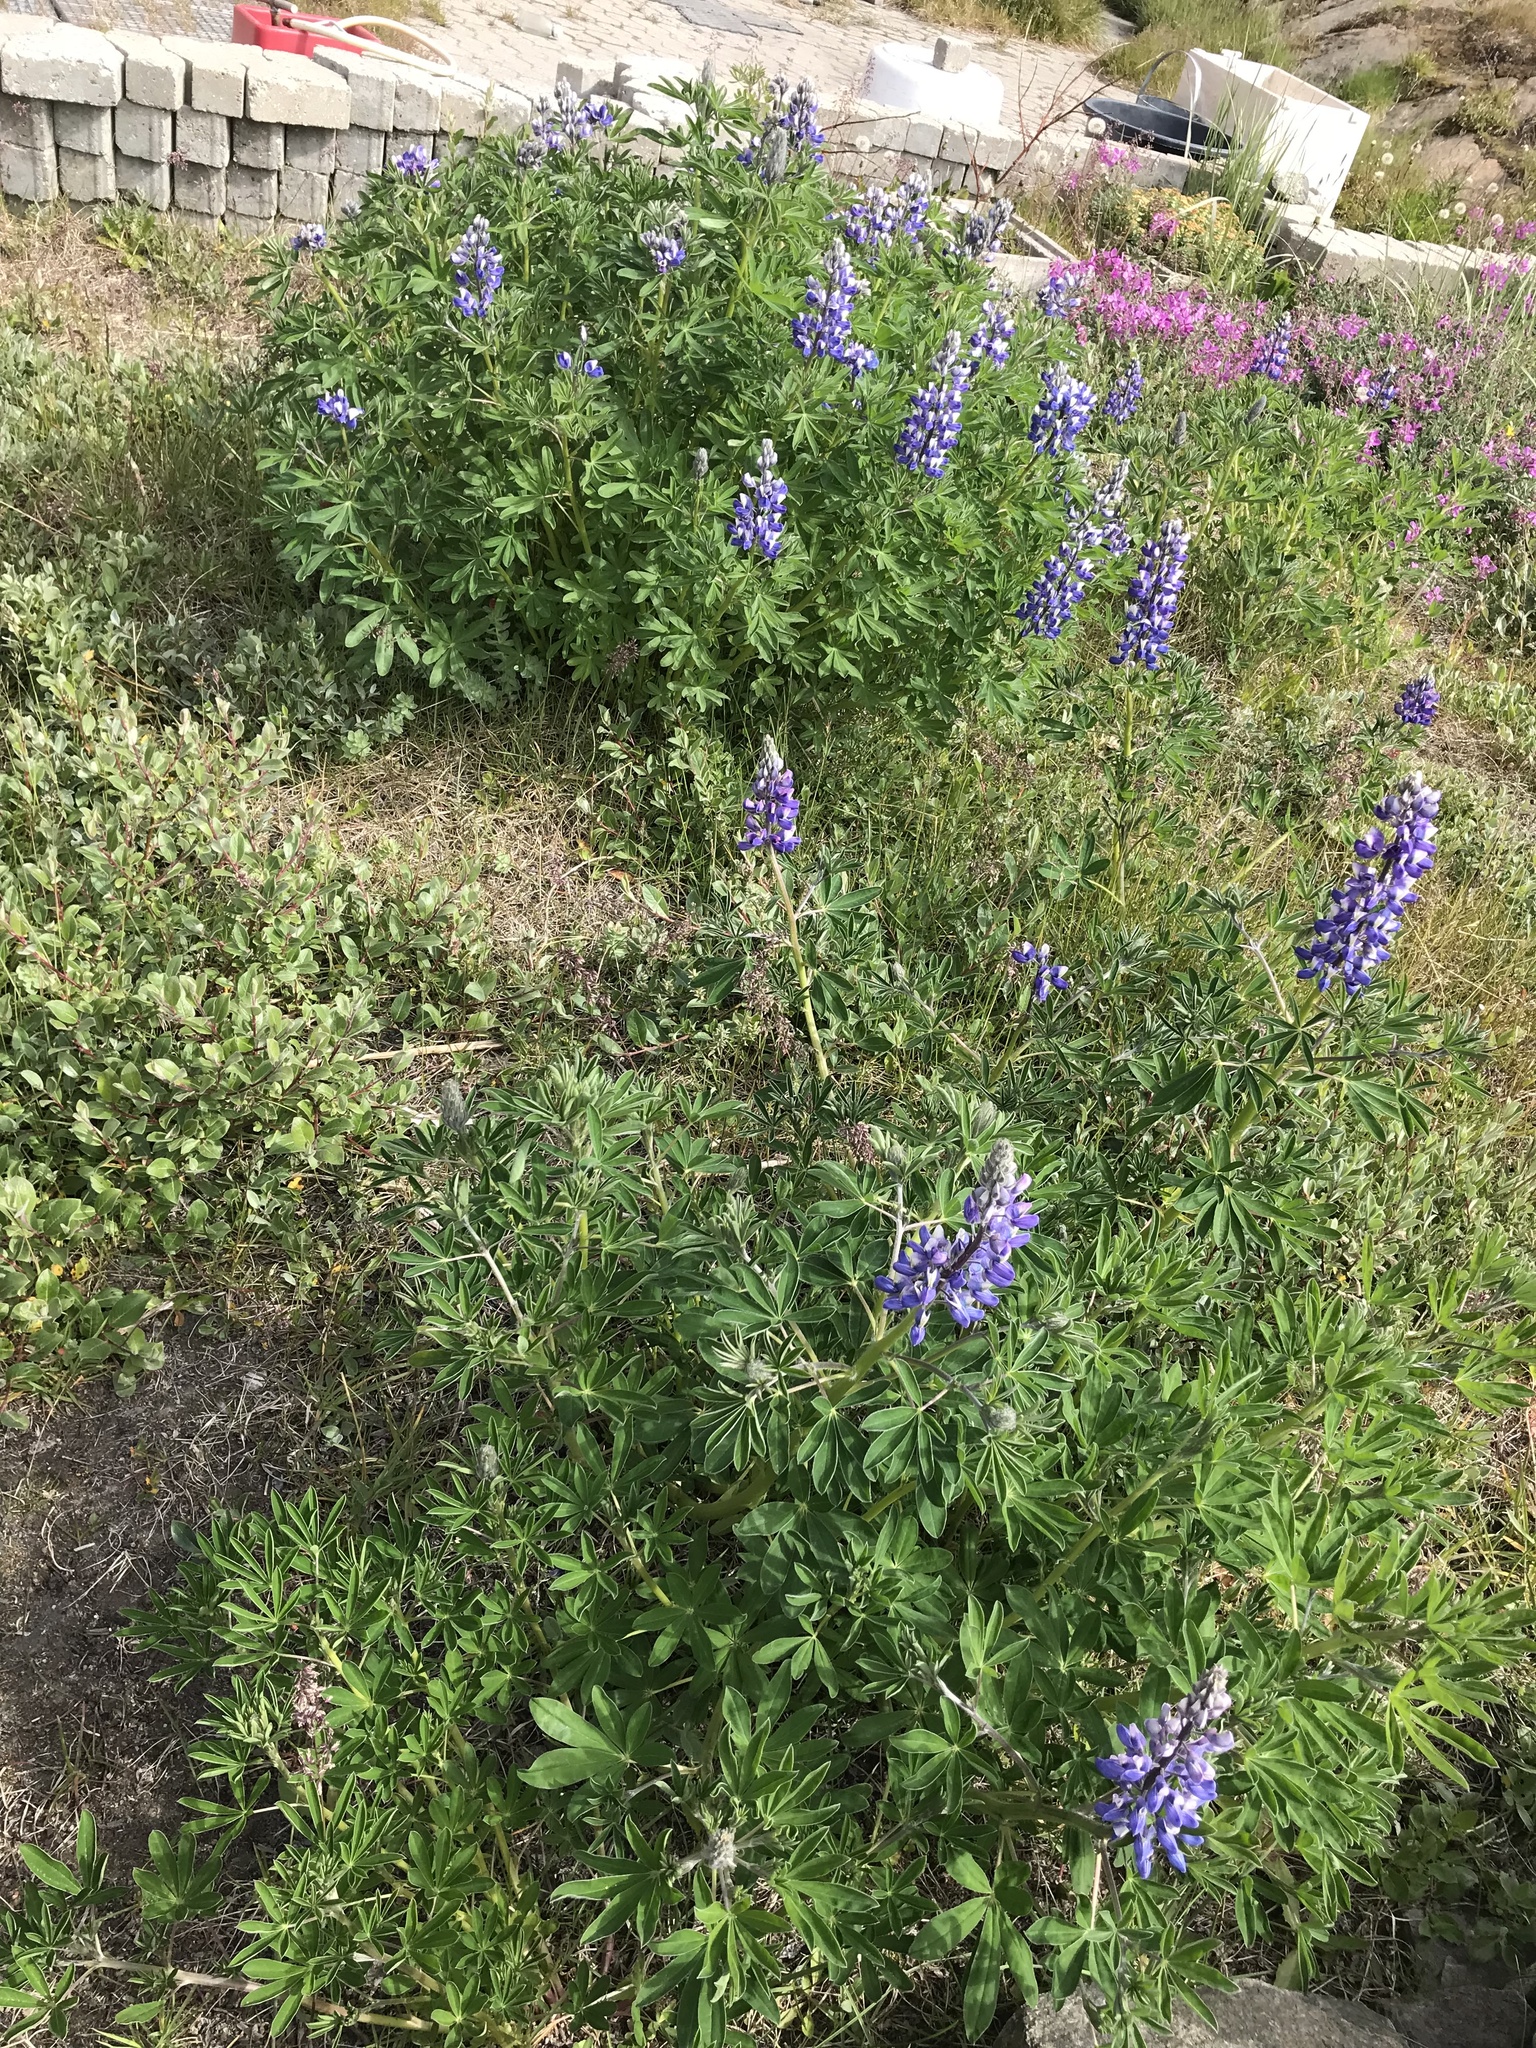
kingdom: Plantae
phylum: Tracheophyta
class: Magnoliopsida
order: Fabales
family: Fabaceae
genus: Lupinus
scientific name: Lupinus nootkatensis
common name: Nootka lupine
